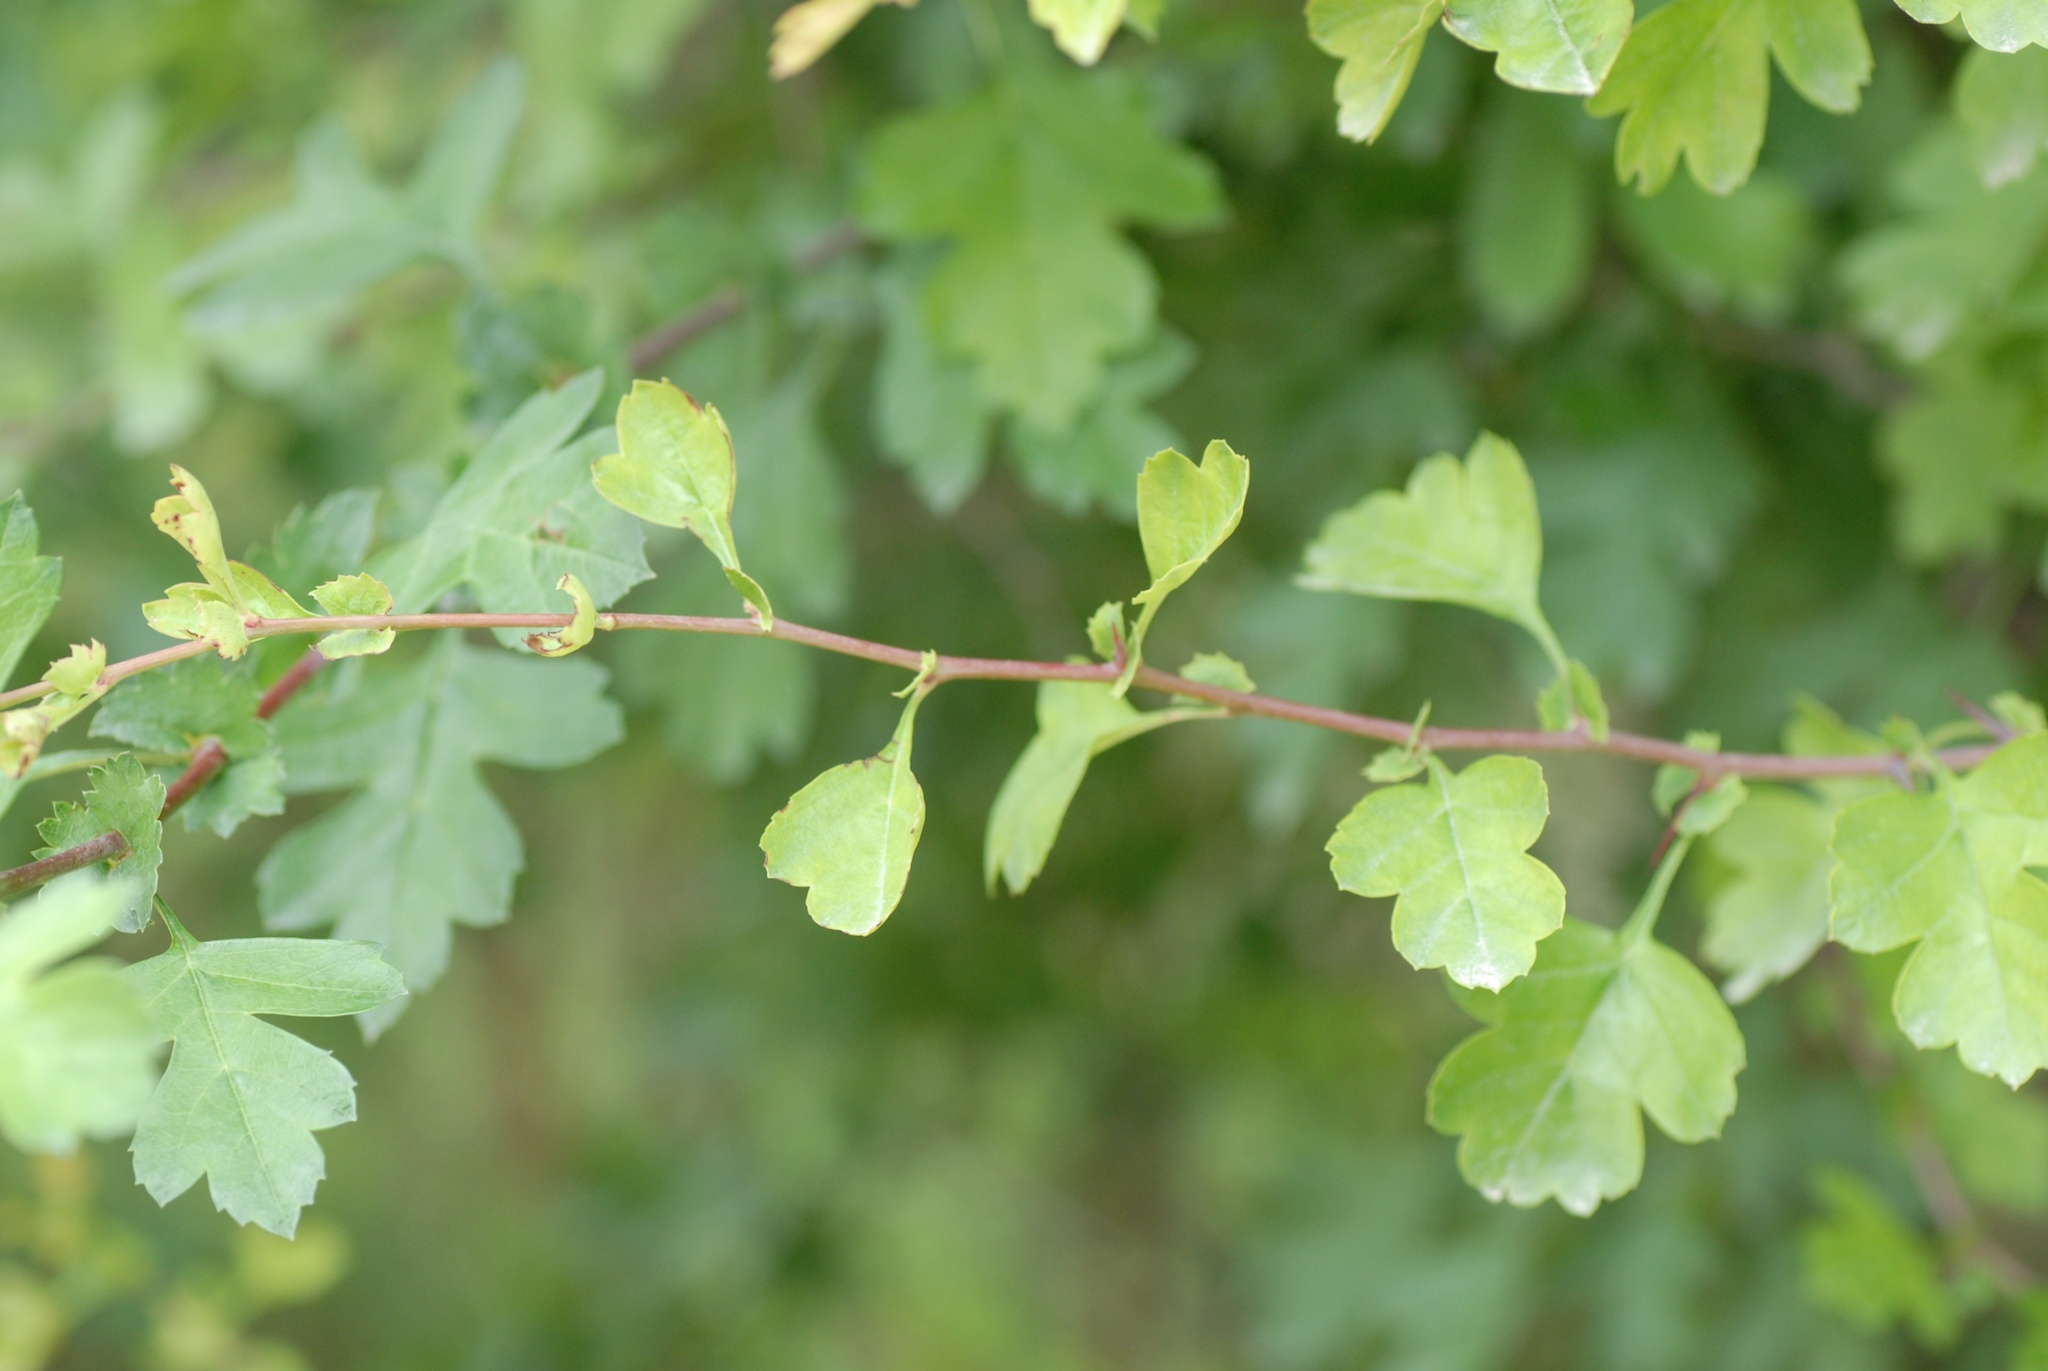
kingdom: Plantae
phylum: Tracheophyta
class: Magnoliopsida
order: Rosales
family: Rosaceae
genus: Crataegus
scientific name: Crataegus monogyna
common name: Hawthorn
